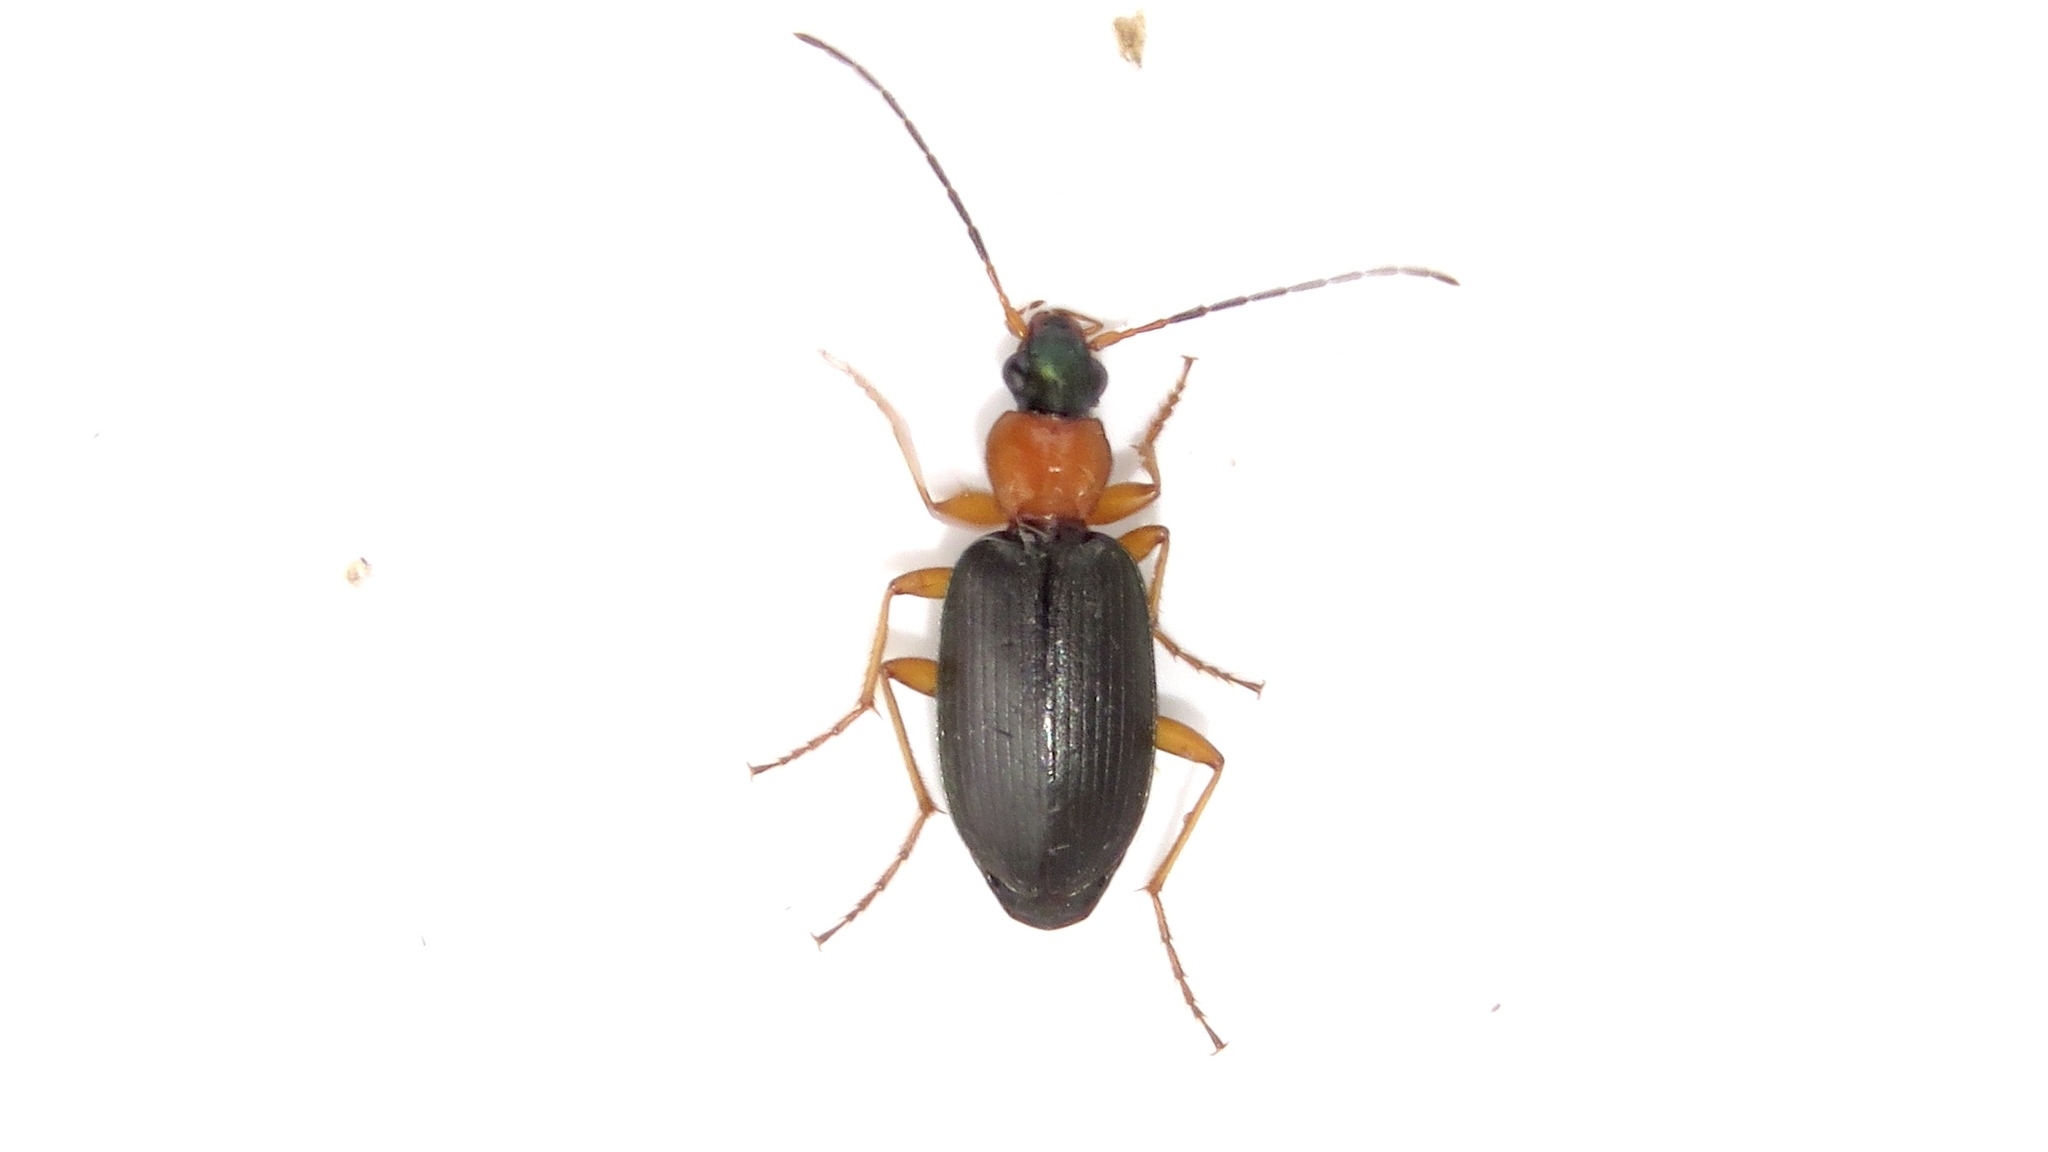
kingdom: Animalia
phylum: Arthropoda
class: Insecta
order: Coleoptera
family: Carabidae
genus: Agonum
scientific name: Agonum decorum
